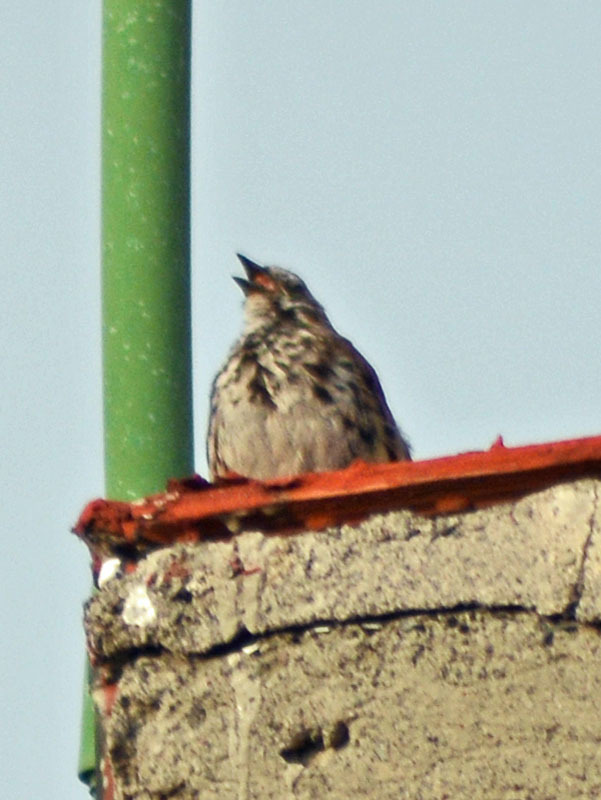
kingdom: Animalia
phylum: Chordata
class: Aves
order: Passeriformes
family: Passerellidae
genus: Melospiza
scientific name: Melospiza melodia
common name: Song sparrow
